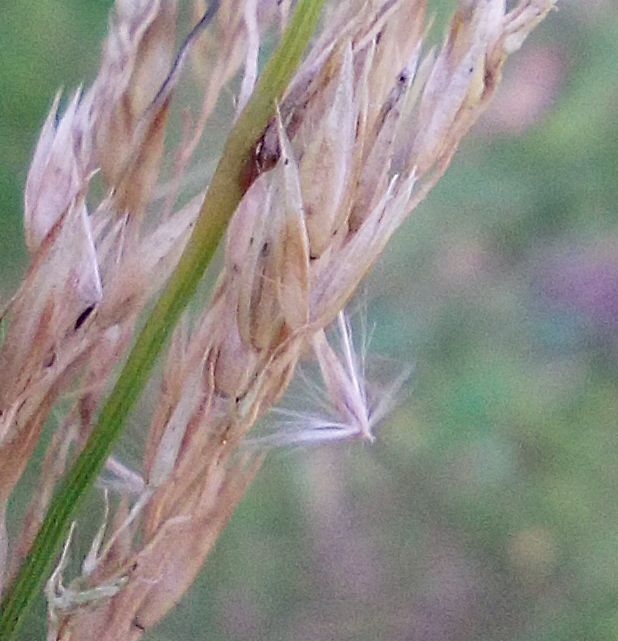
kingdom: Plantae
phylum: Tracheophyta
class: Liliopsida
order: Poales
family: Poaceae
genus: Calamagrostis
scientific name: Calamagrostis villosa
